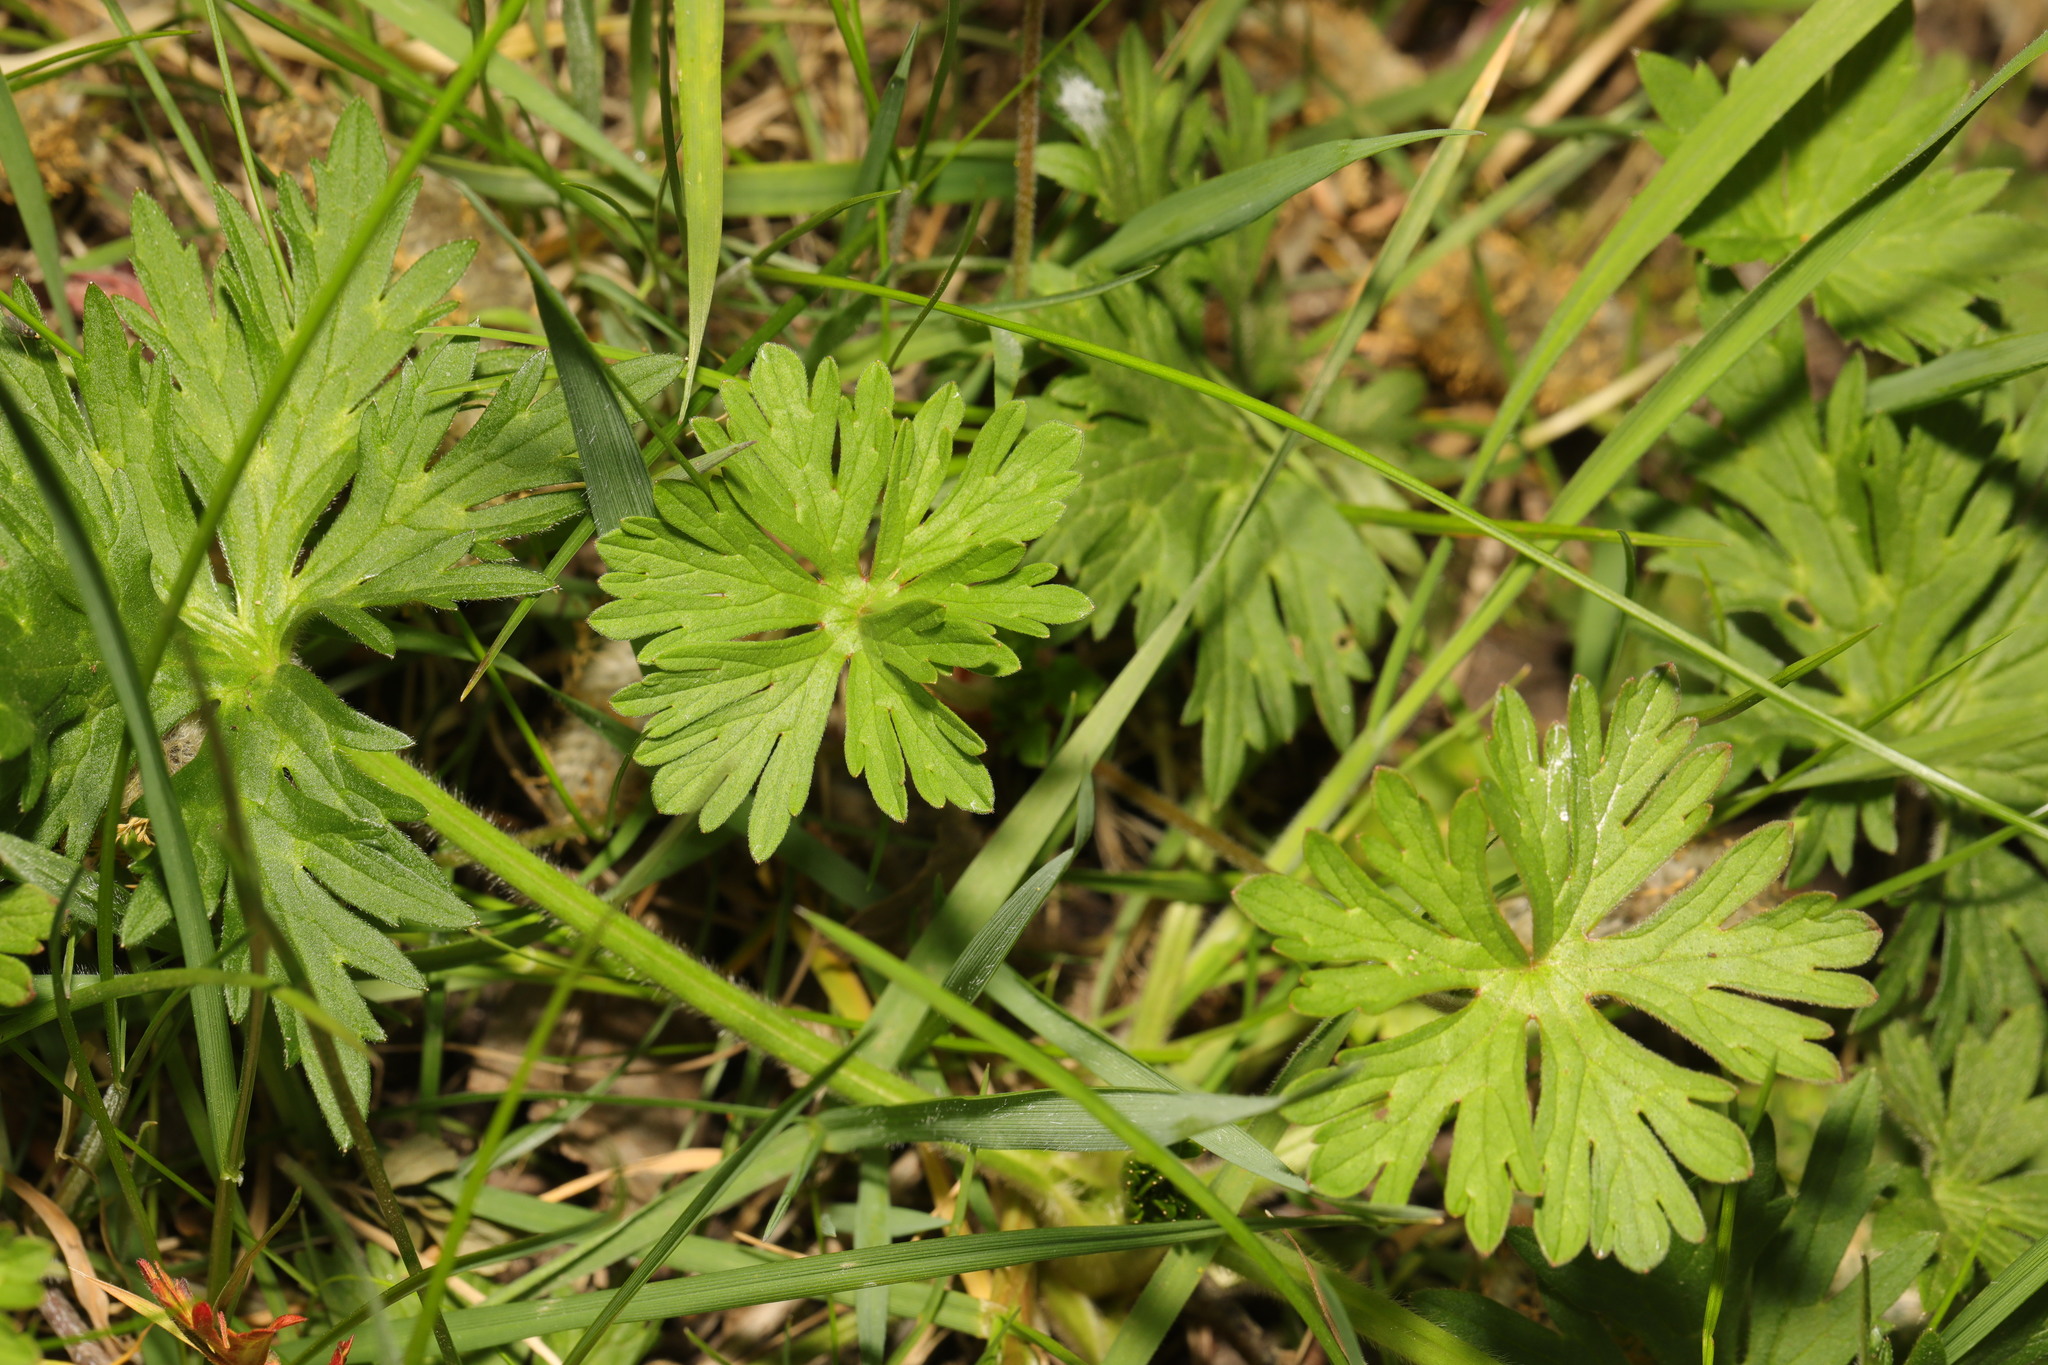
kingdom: Plantae
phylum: Tracheophyta
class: Magnoliopsida
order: Geraniales
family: Geraniaceae
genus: Geranium
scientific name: Geranium dissectum
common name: Cut-leaved crane's-bill
